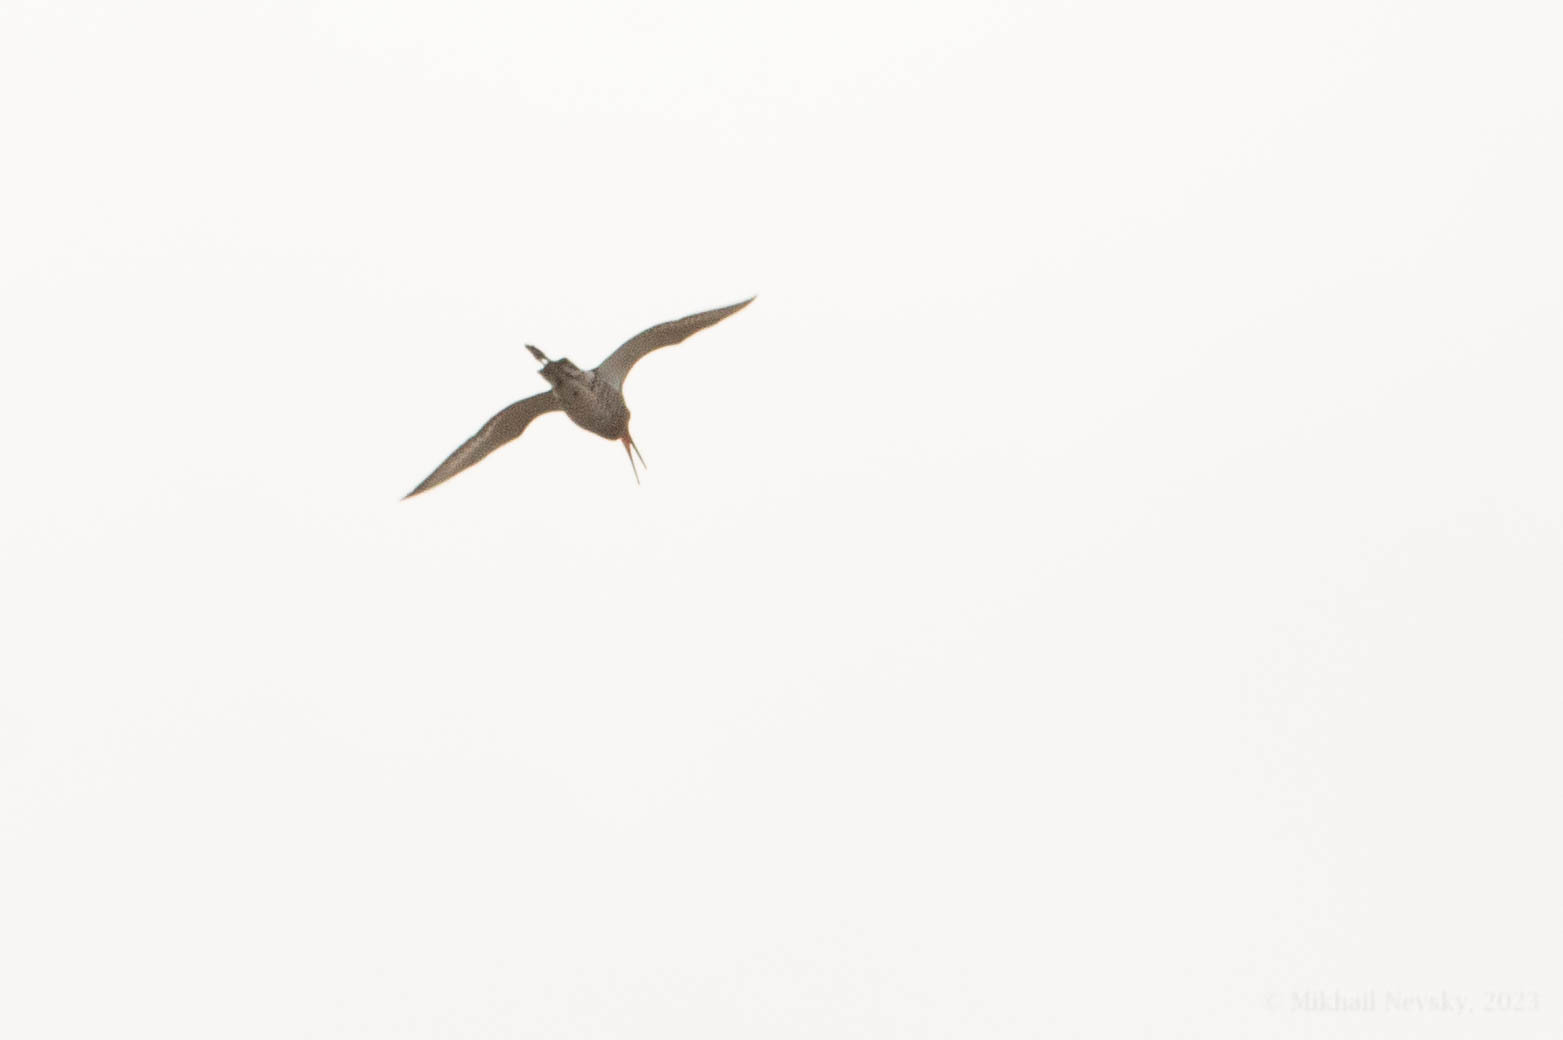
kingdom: Animalia
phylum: Chordata
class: Aves
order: Charadriiformes
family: Scolopacidae
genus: Limosa
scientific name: Limosa limosa
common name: Black-tailed godwit
